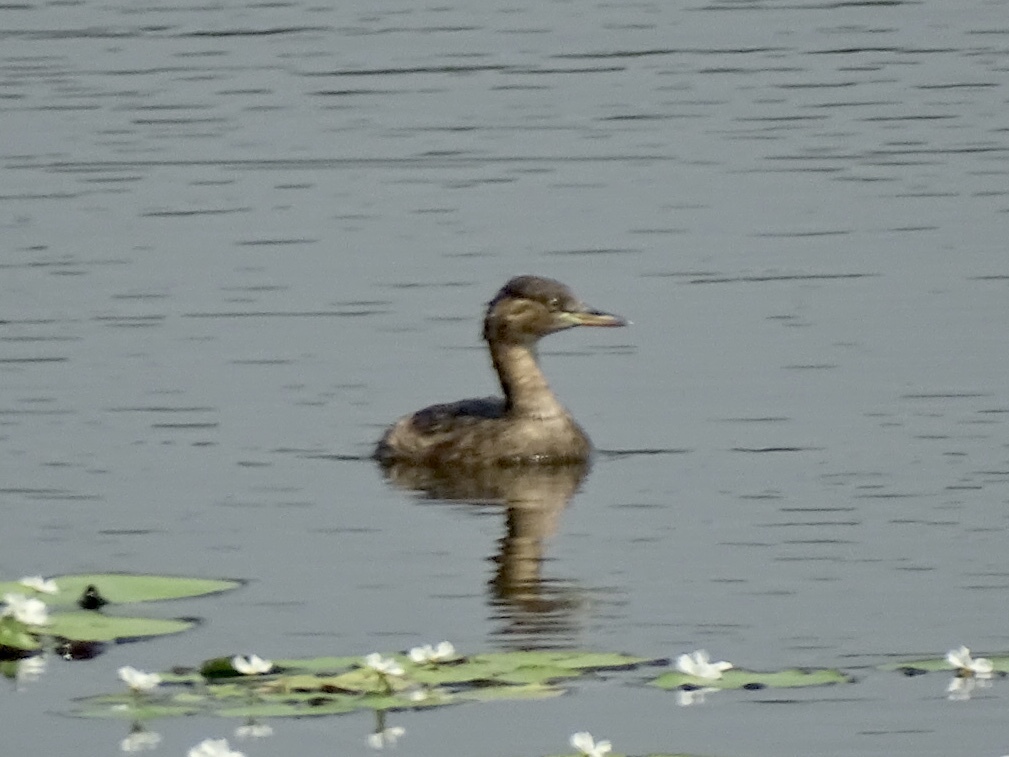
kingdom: Animalia
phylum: Chordata
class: Aves
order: Podicipediformes
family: Podicipedidae
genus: Tachybaptus
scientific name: Tachybaptus ruficollis
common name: Little grebe
